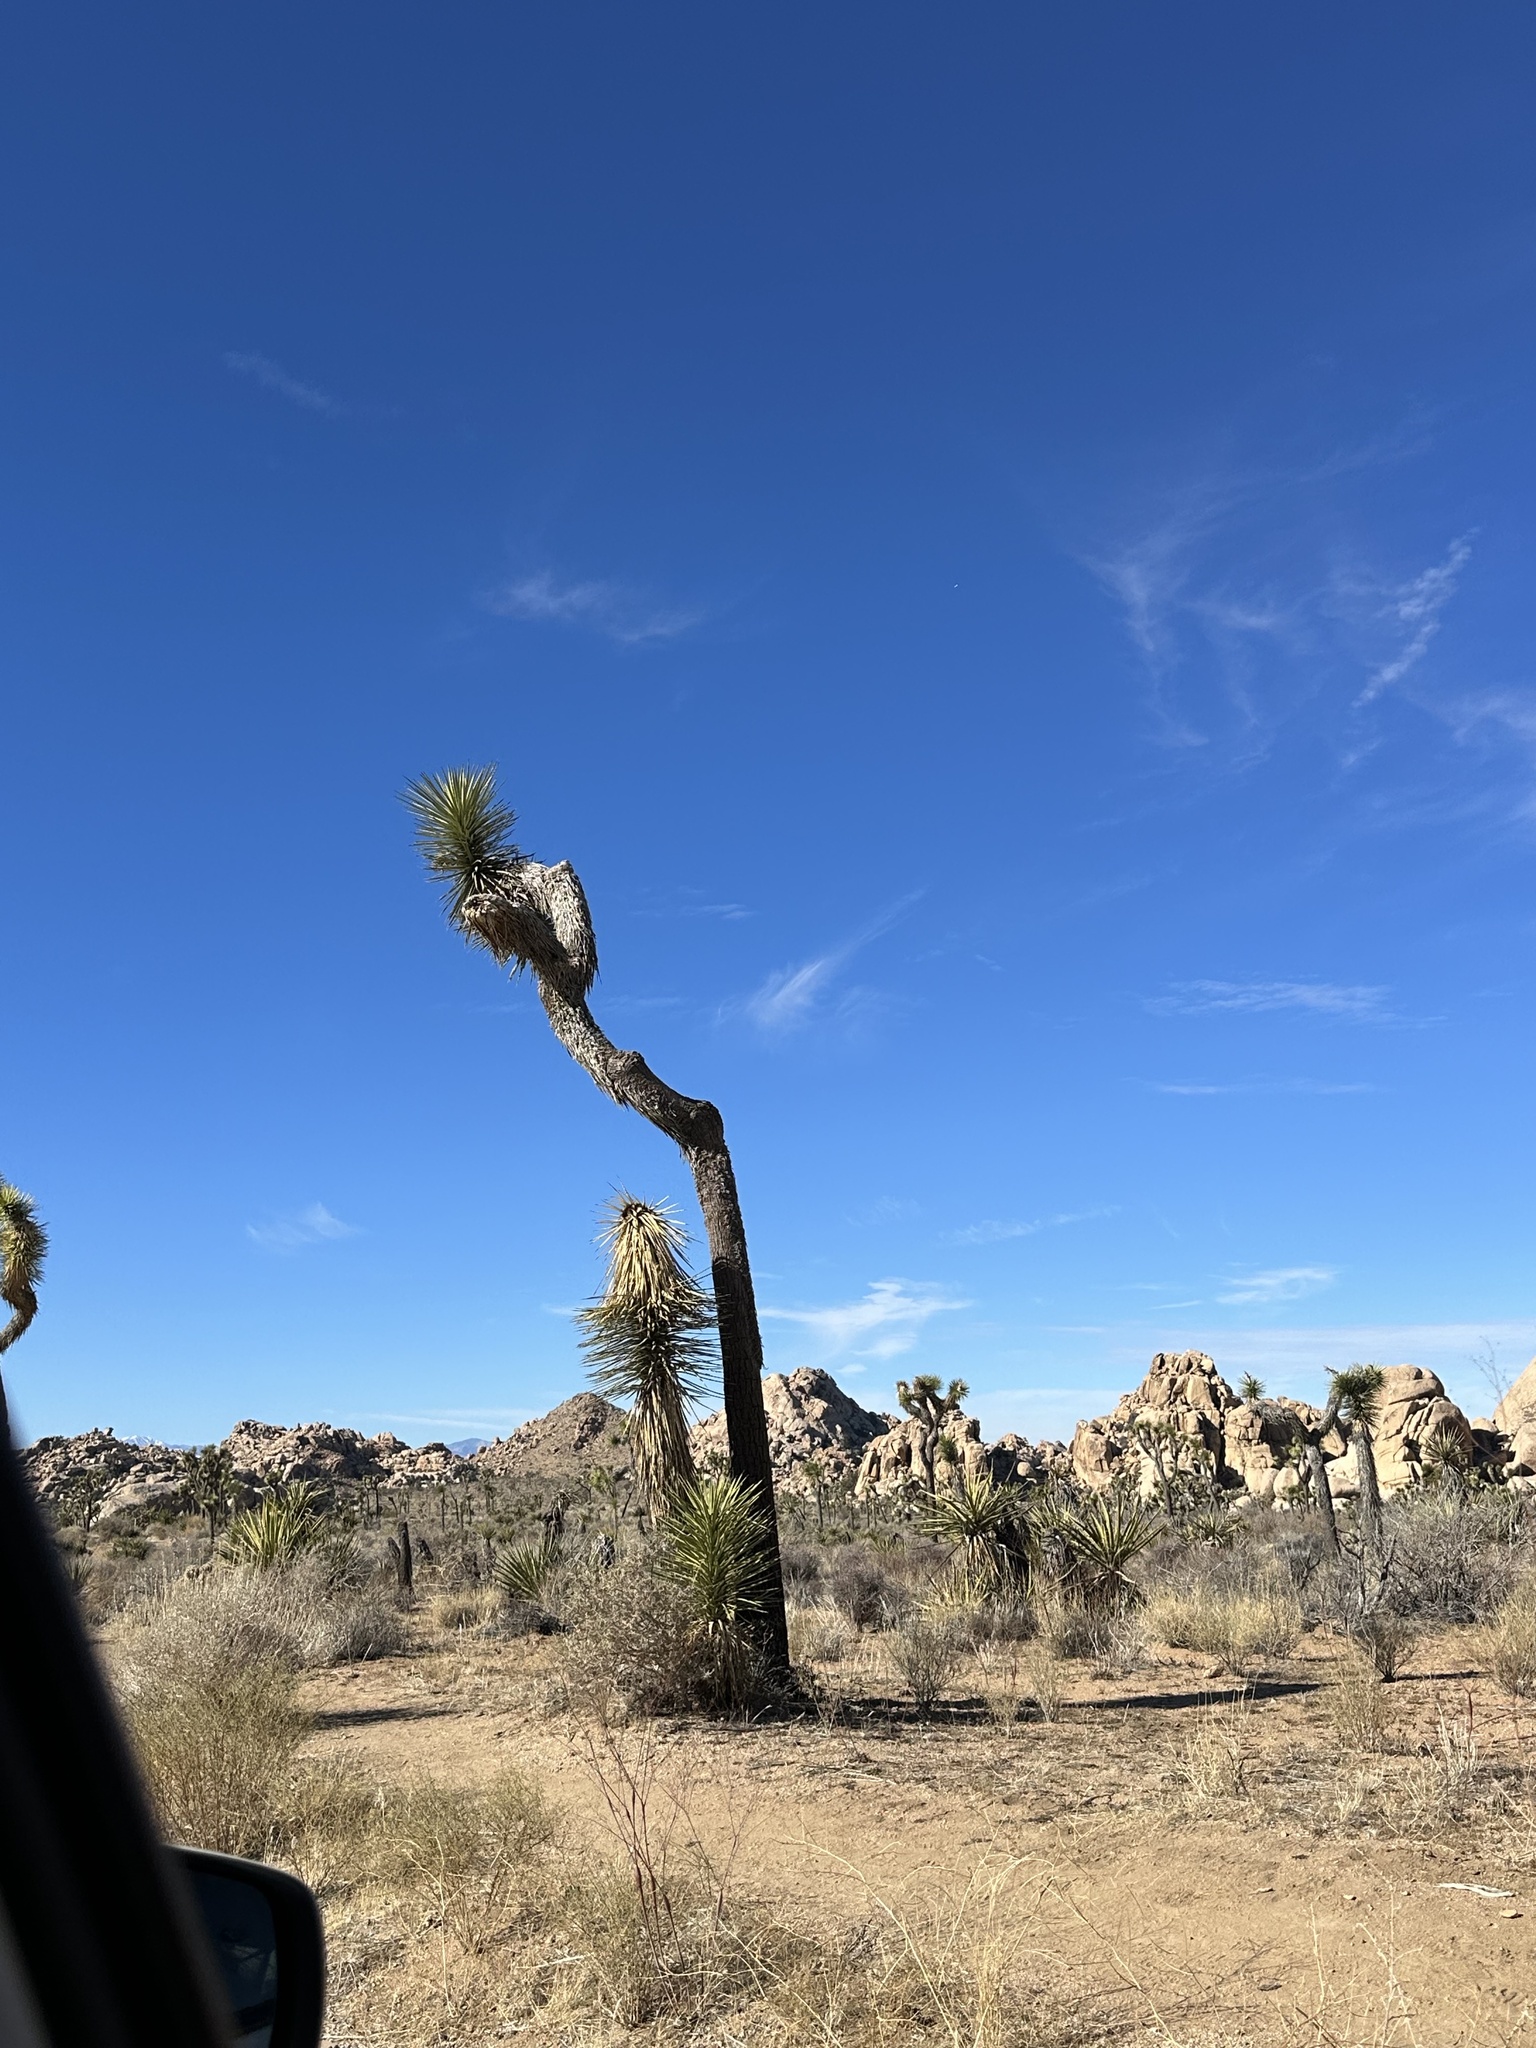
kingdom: Plantae
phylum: Tracheophyta
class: Liliopsida
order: Asparagales
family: Asparagaceae
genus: Yucca
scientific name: Yucca brevifolia
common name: Joshua tree
